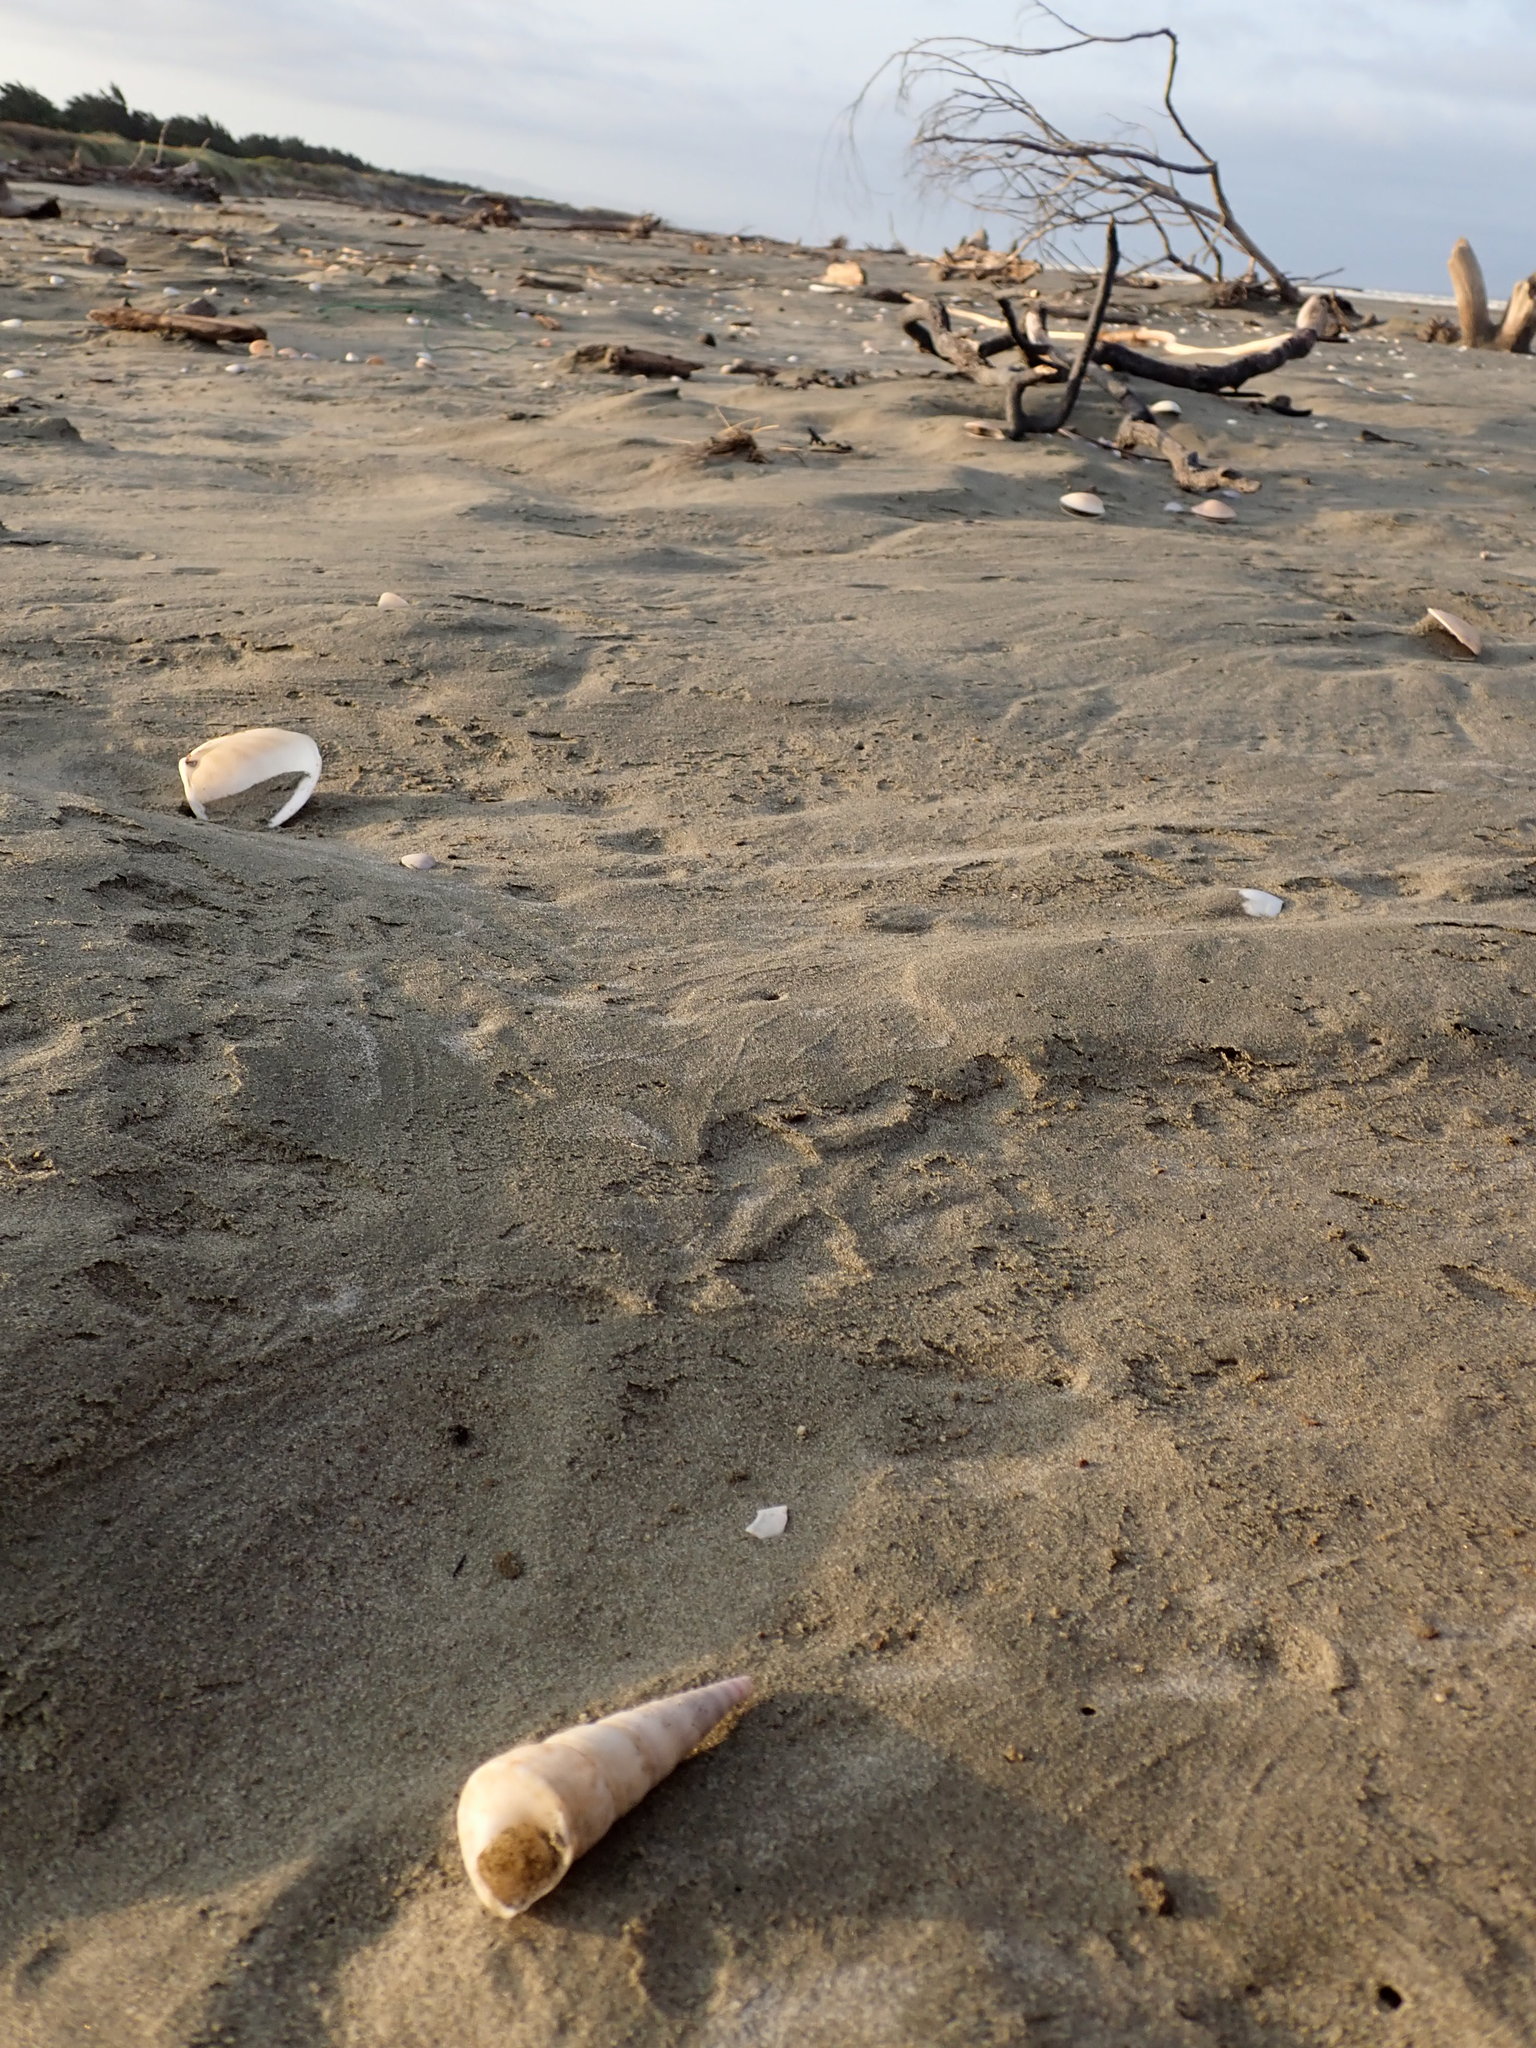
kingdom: Animalia
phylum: Mollusca
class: Gastropoda
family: Turritellidae
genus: Maoricolpus
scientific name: Maoricolpus roseus
